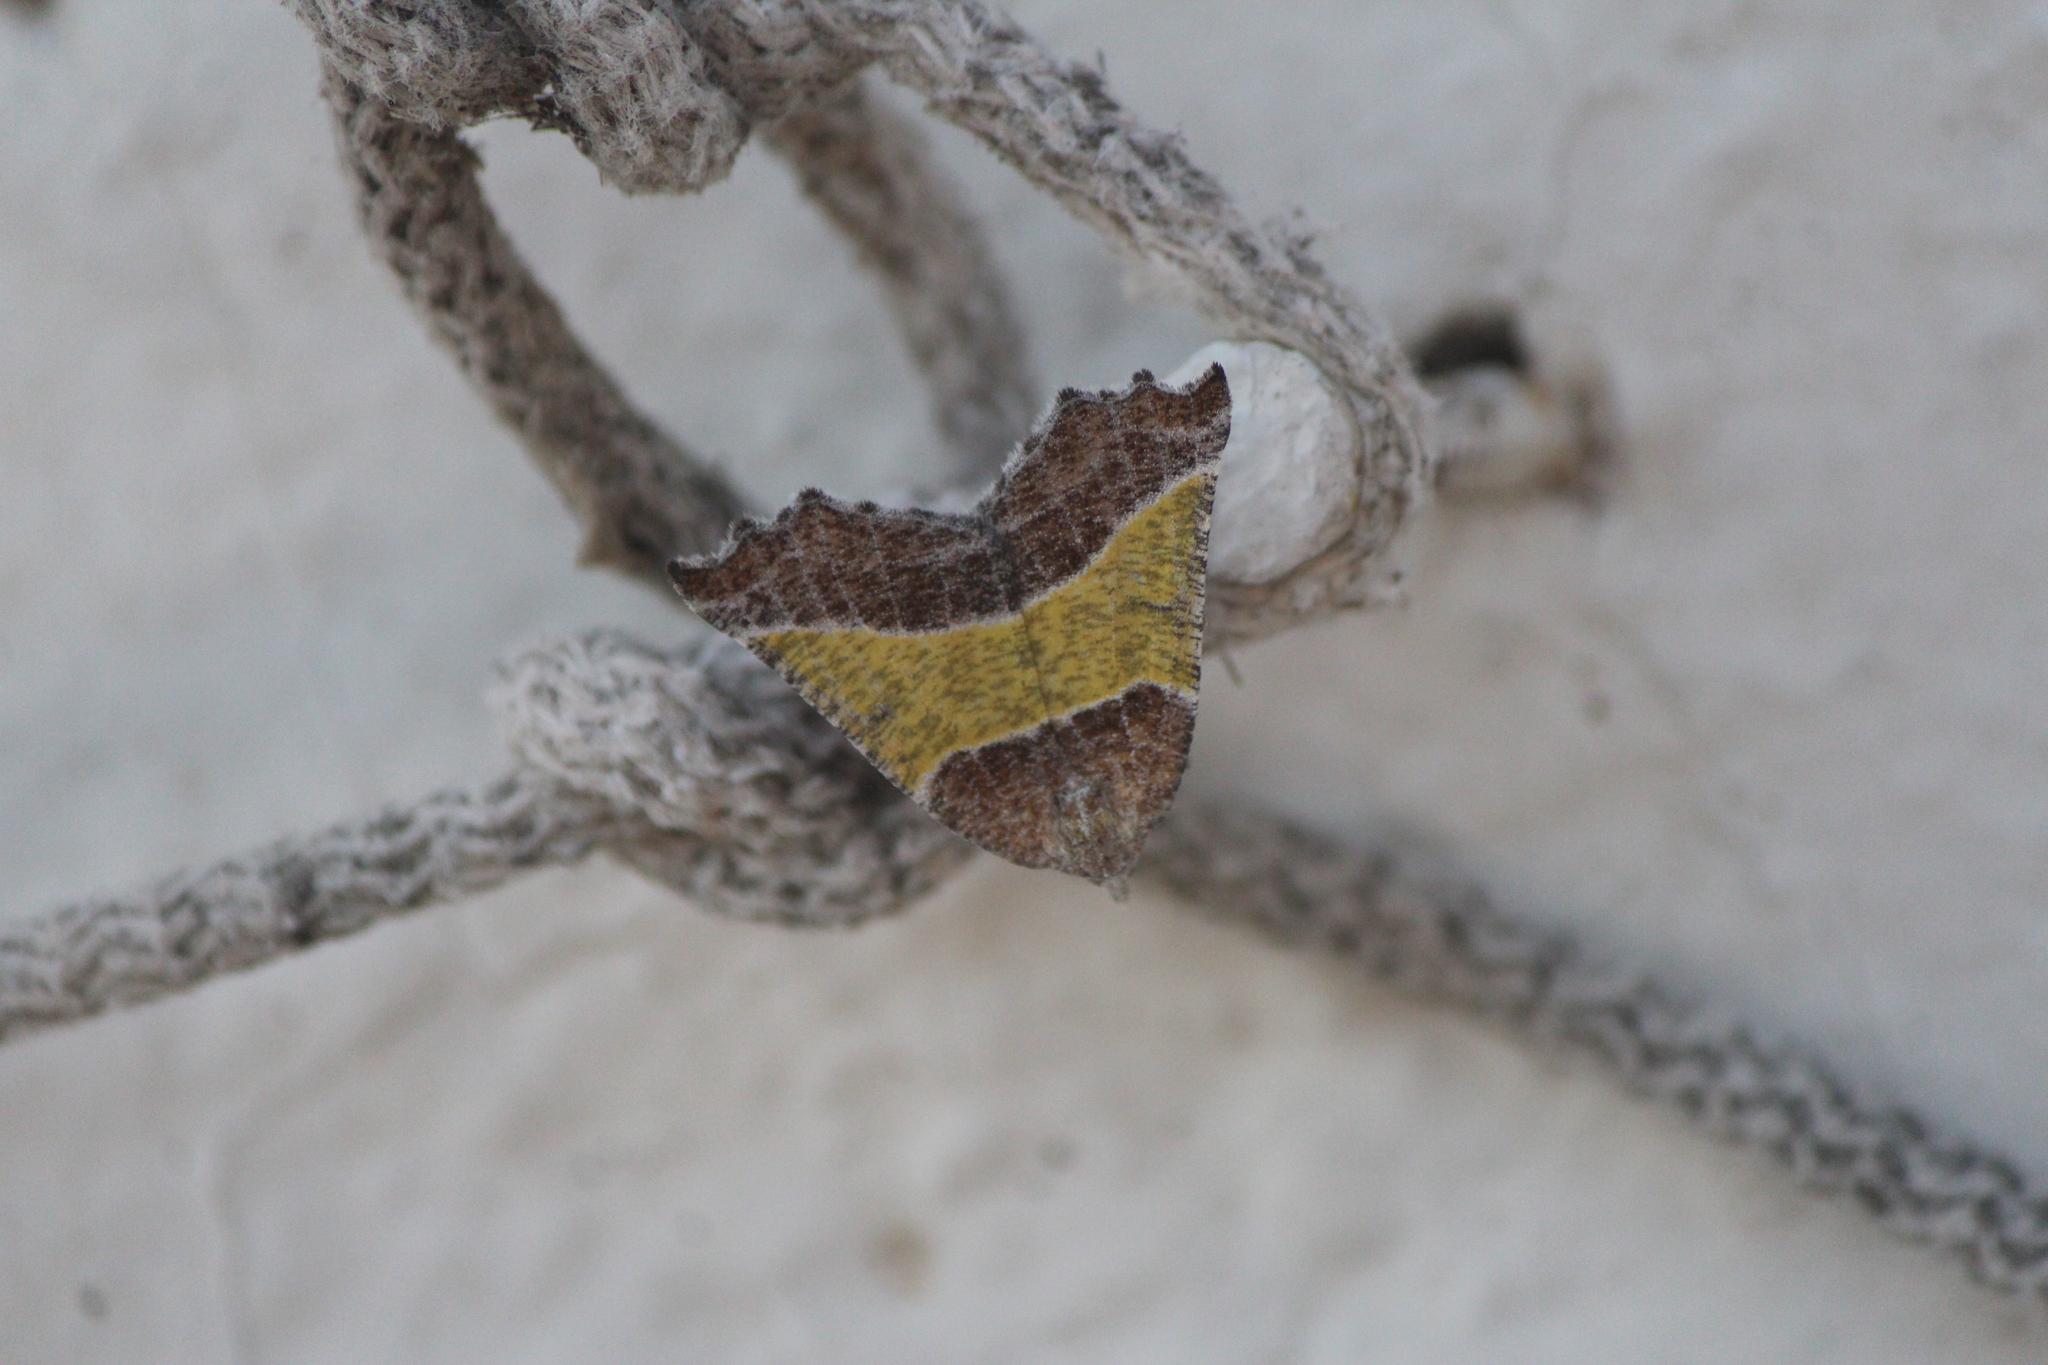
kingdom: Animalia
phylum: Arthropoda
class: Insecta
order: Lepidoptera
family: Geometridae
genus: Plataea
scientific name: Plataea polychroma
